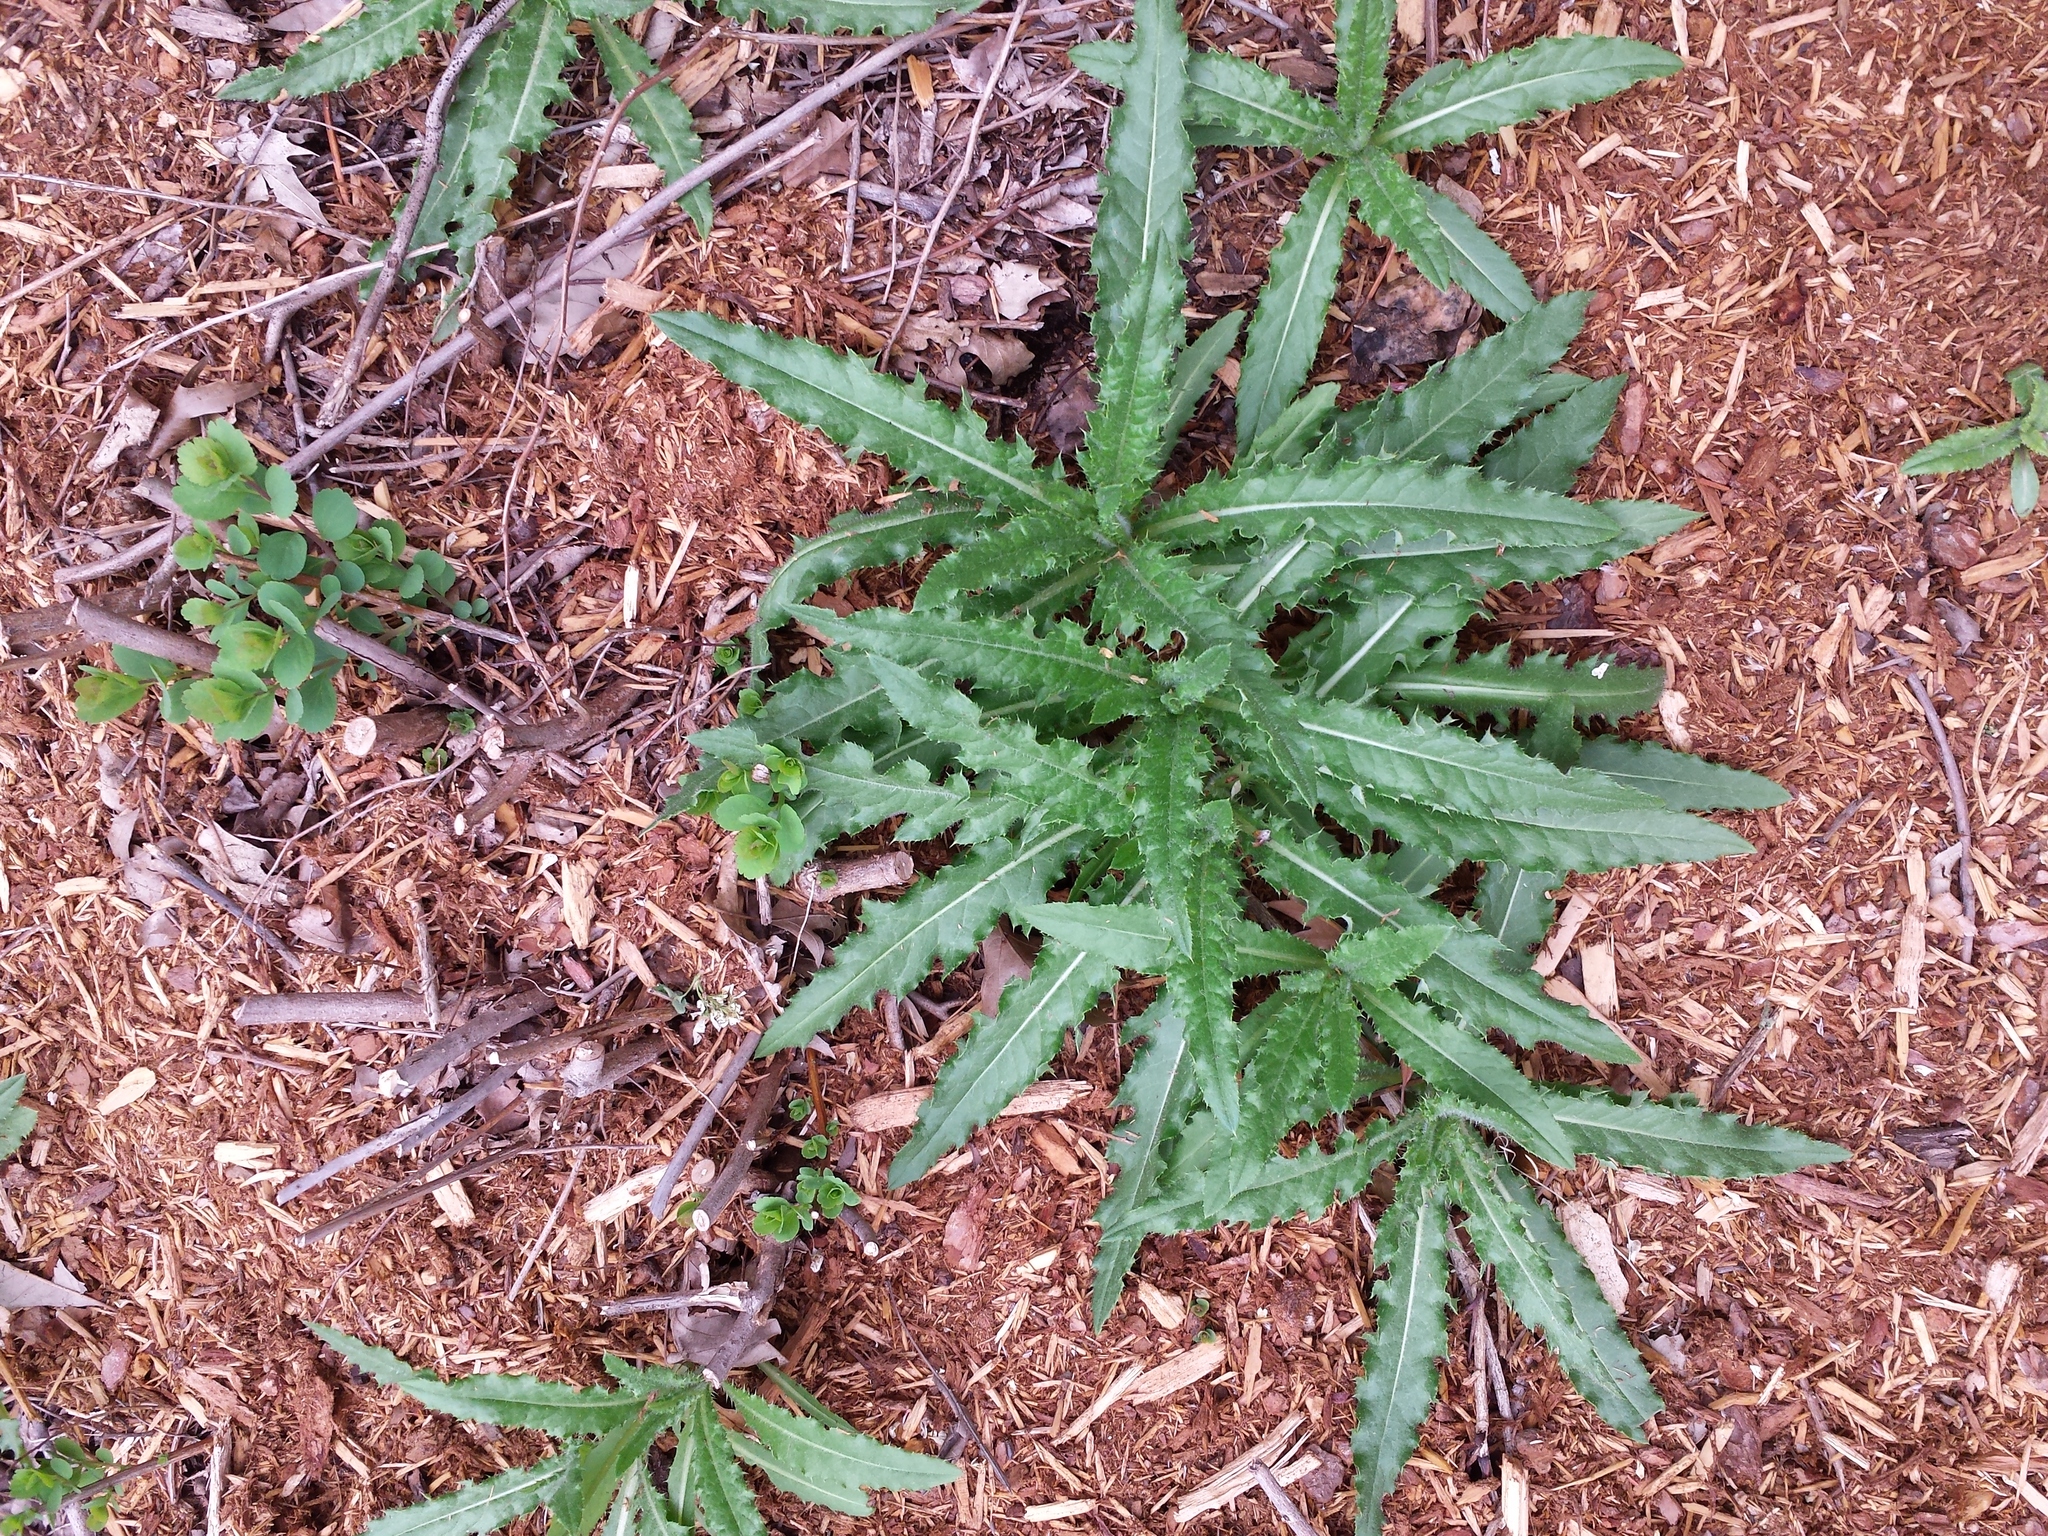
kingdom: Plantae
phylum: Tracheophyta
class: Magnoliopsida
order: Asterales
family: Asteraceae
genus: Cirsium
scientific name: Cirsium arvense
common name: Creeping thistle
